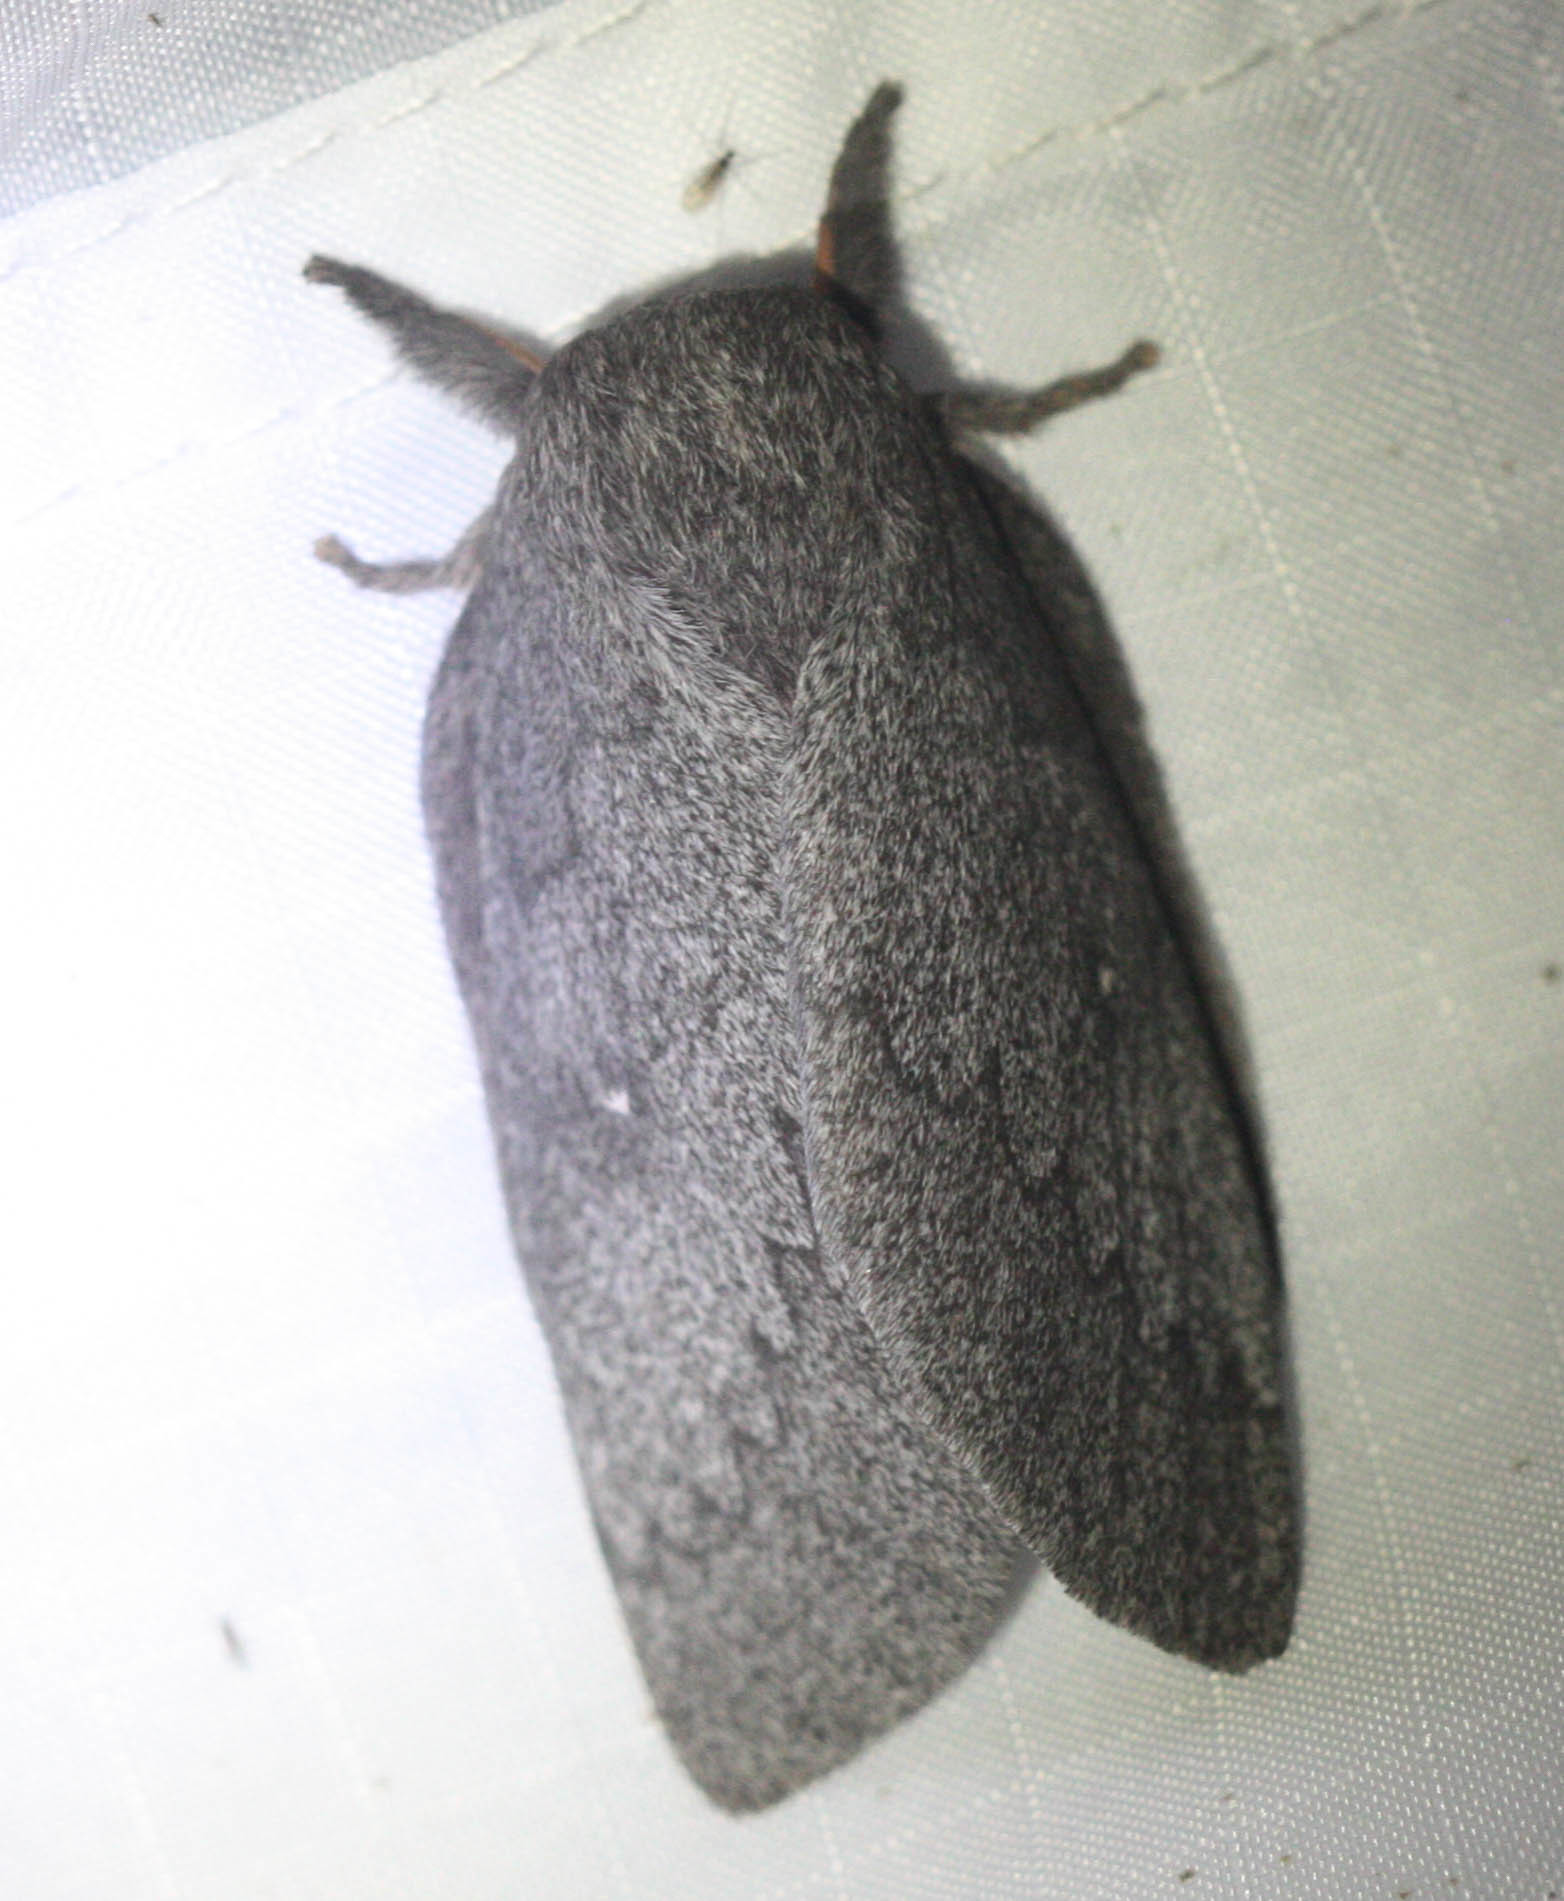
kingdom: Animalia
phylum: Arthropoda
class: Insecta
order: Lepidoptera
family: Saturniidae
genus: Syssphinx
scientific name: Syssphinx hubbardi
